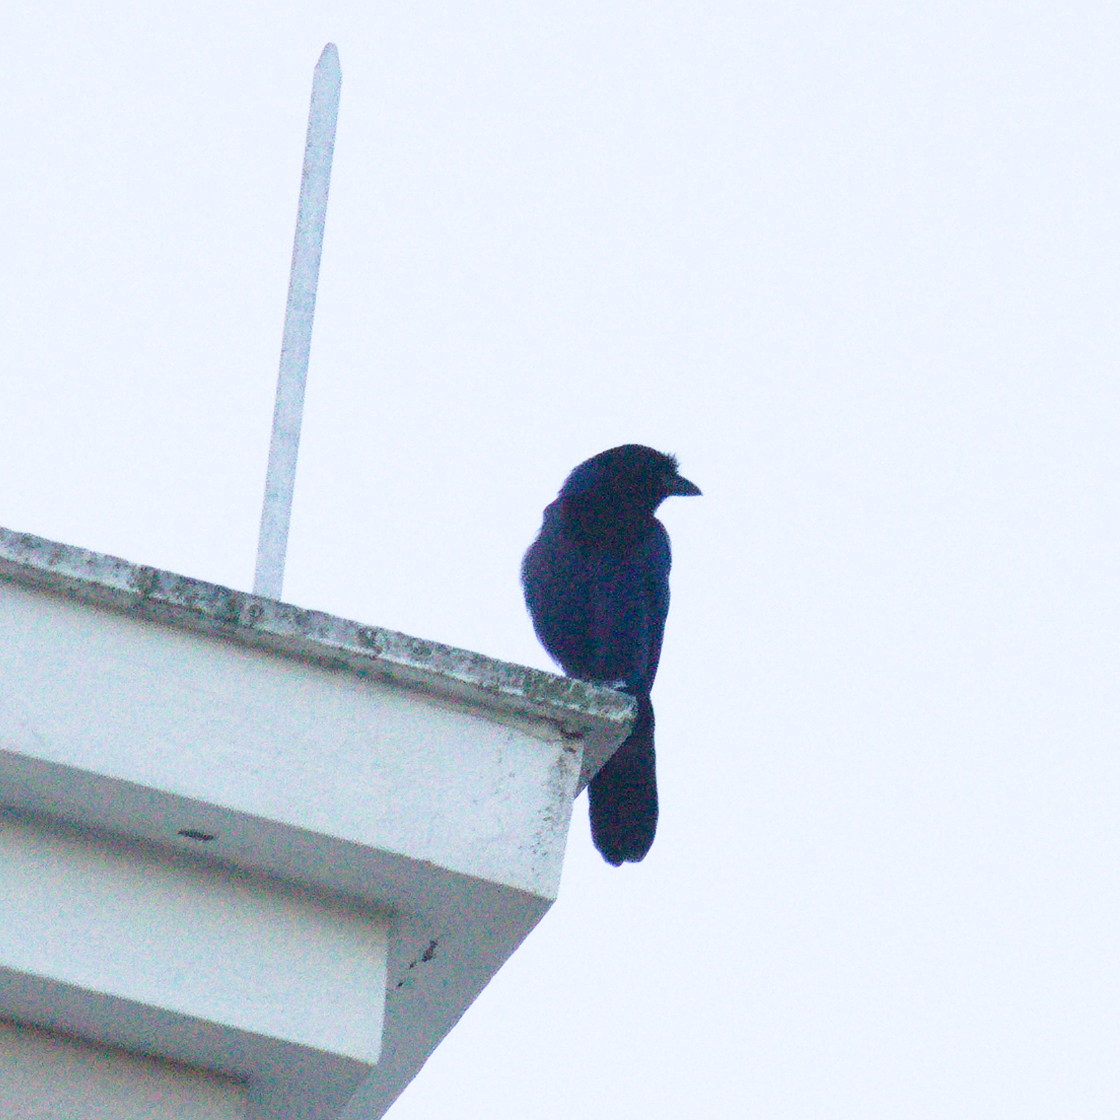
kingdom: Animalia
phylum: Chordata
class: Aves
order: Passeriformes
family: Corvidae
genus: Cyanocorax
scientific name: Cyanocorax caeruleus
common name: Azure jay
